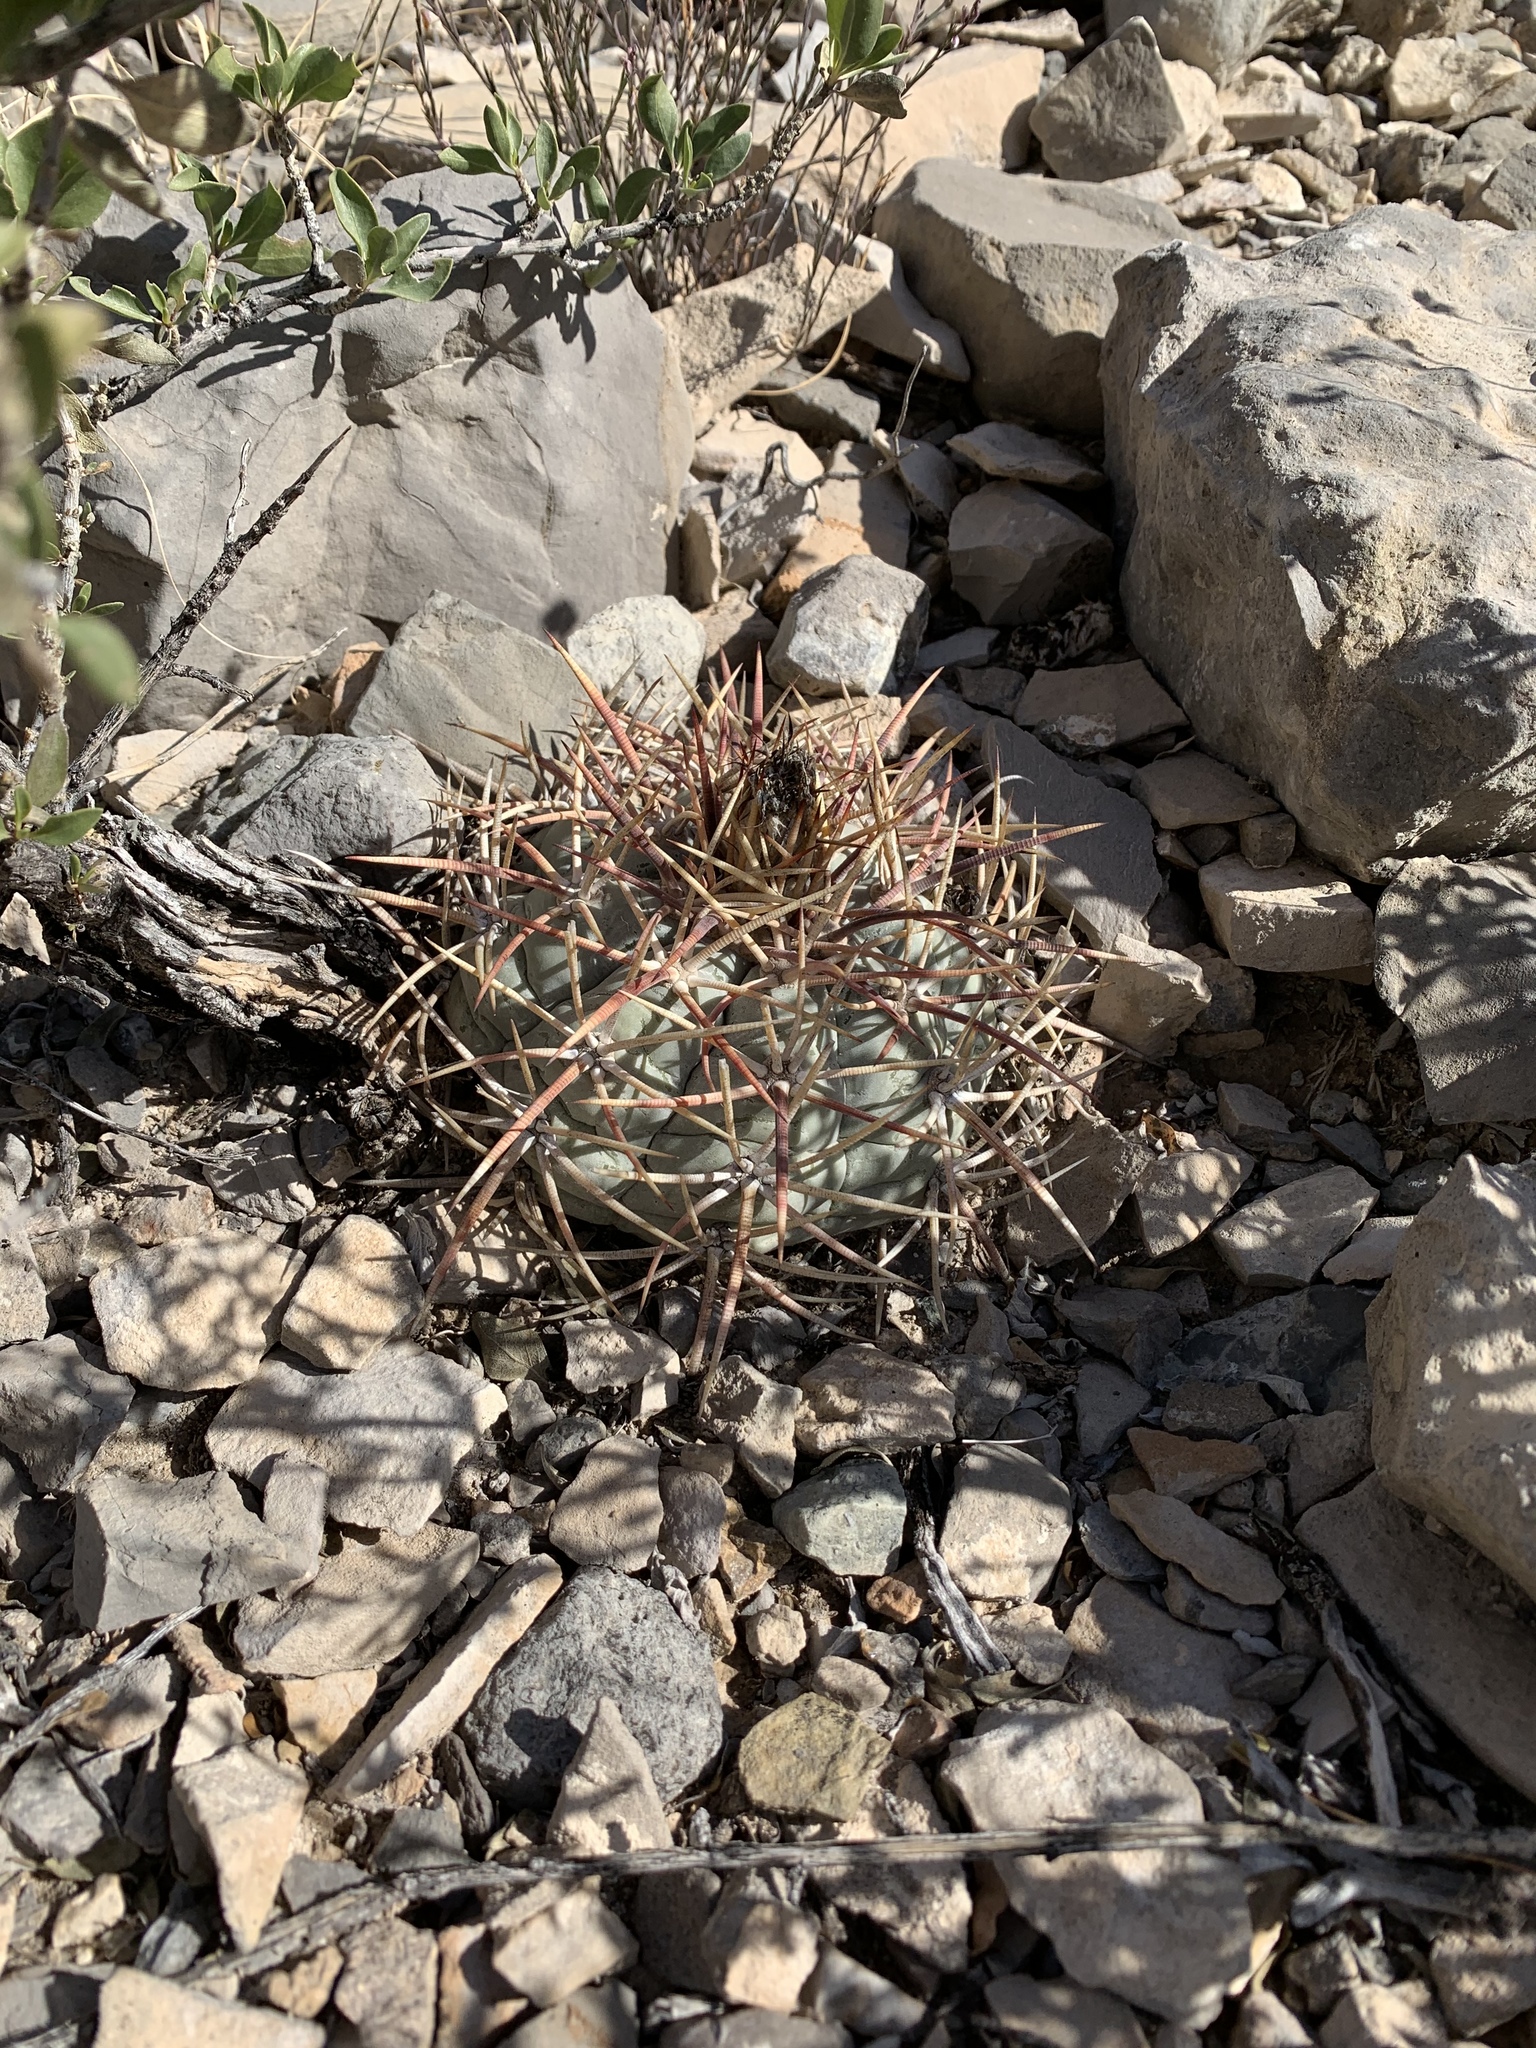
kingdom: Plantae
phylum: Tracheophyta
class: Magnoliopsida
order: Caryophyllales
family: Cactaceae
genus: Echinocactus
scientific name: Echinocactus horizonthalonius
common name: Devilshead
